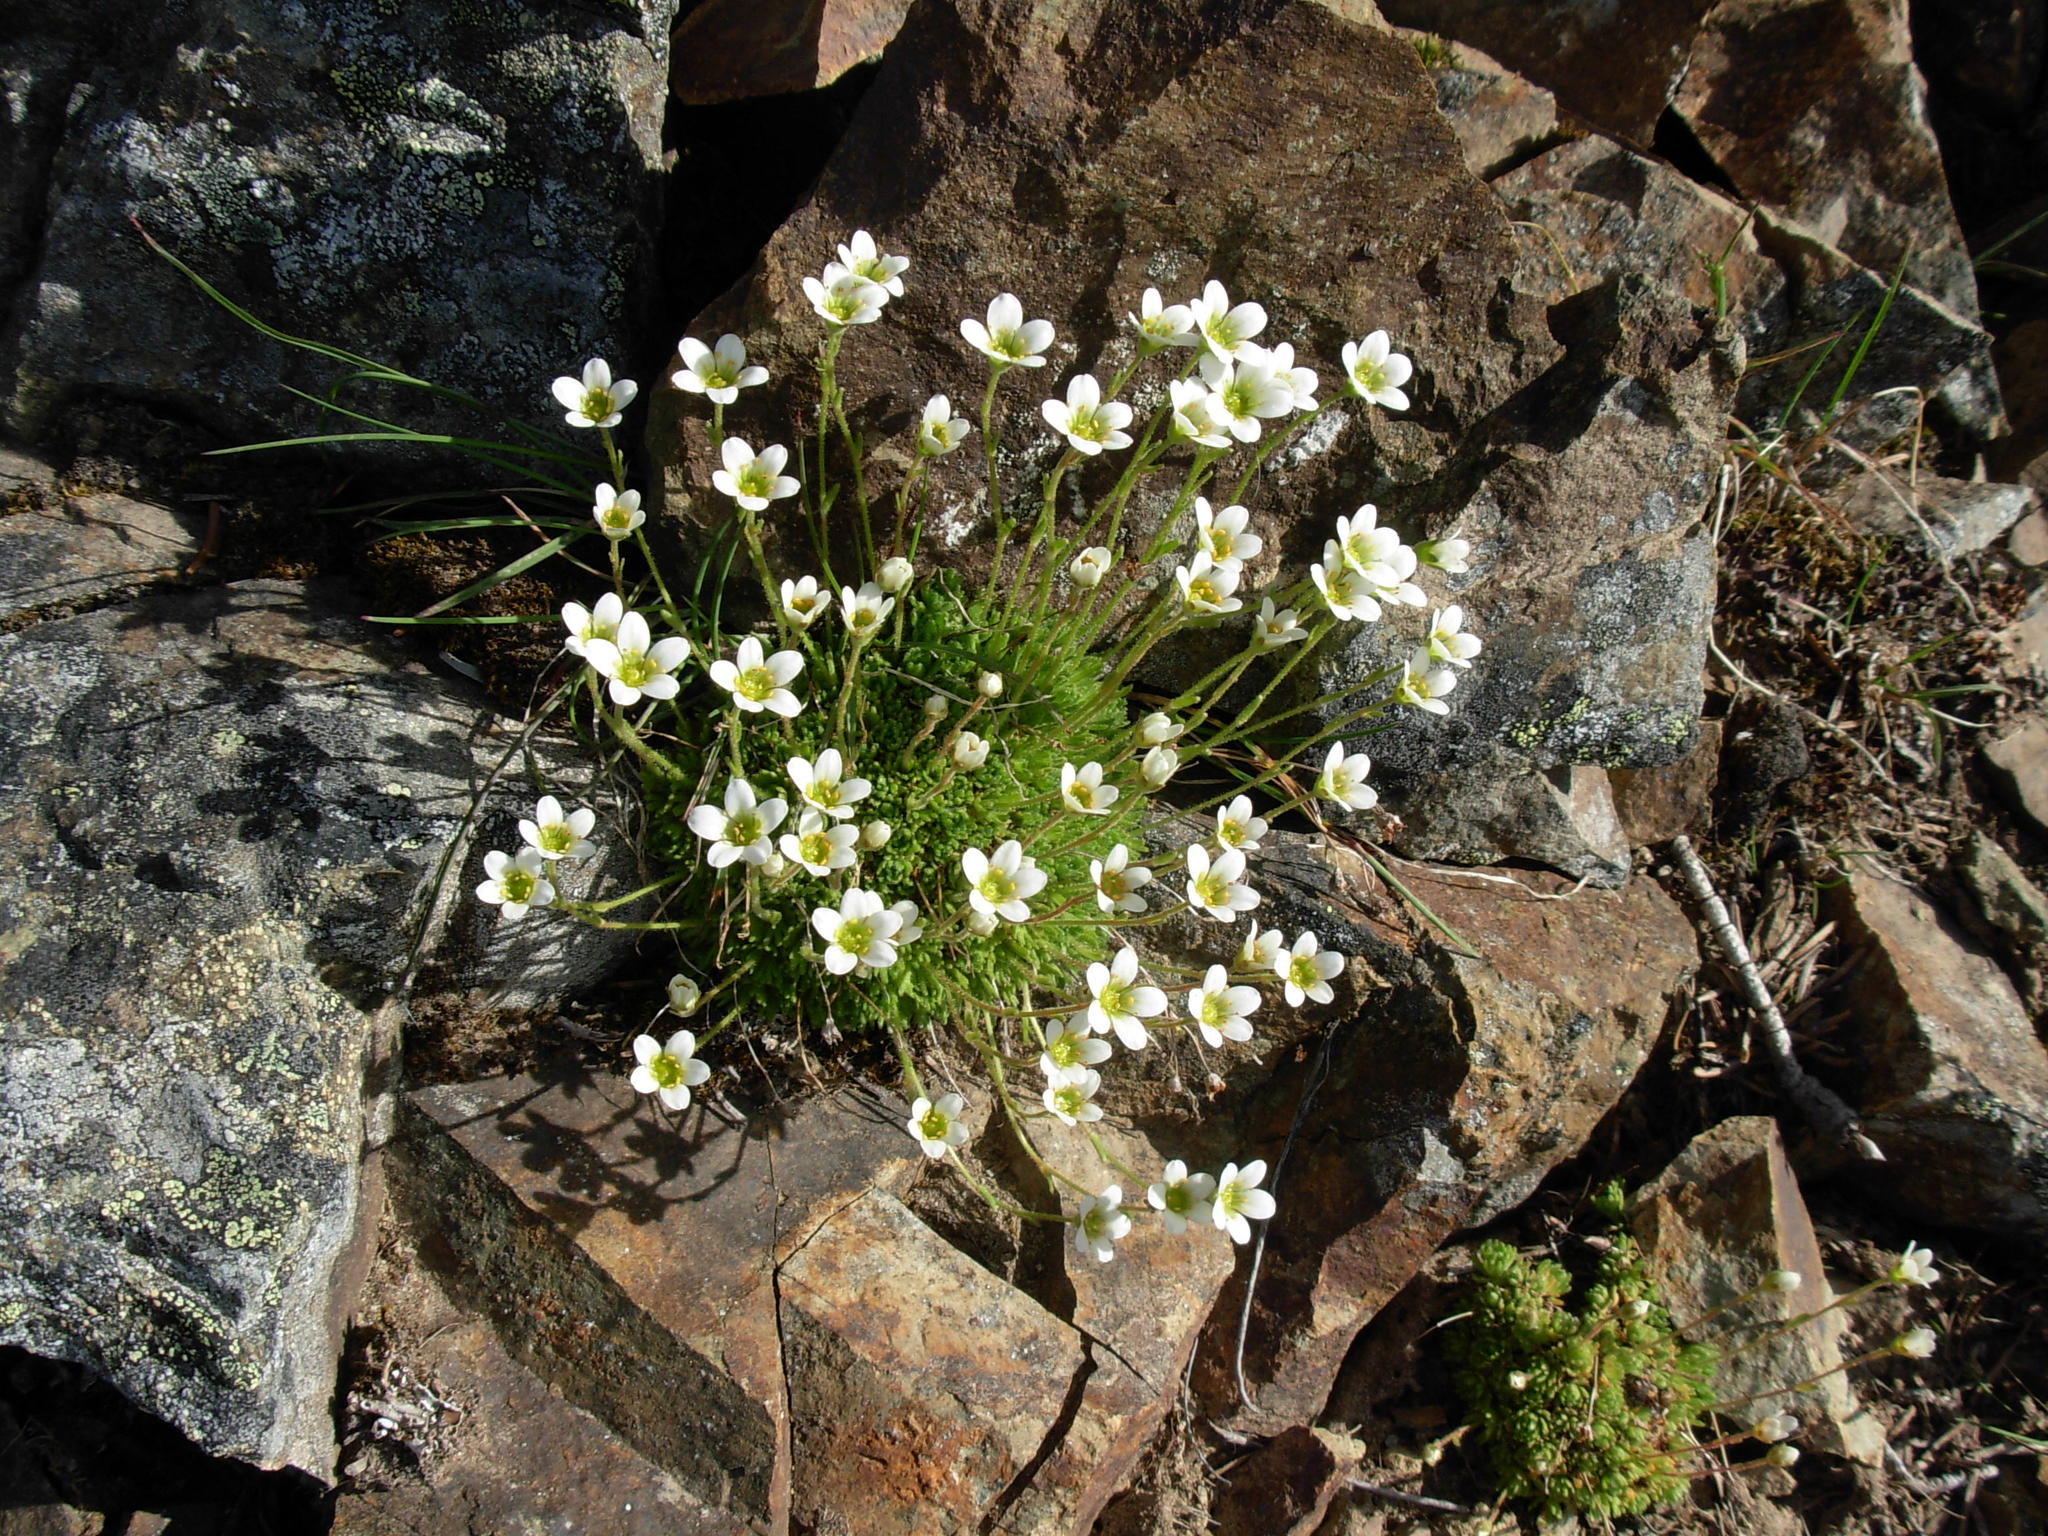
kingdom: Plantae
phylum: Tracheophyta
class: Magnoliopsida
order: Saxifragales
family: Saxifragaceae
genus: Saxifraga
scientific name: Saxifraga cespitosa
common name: Tufted saxifrage
